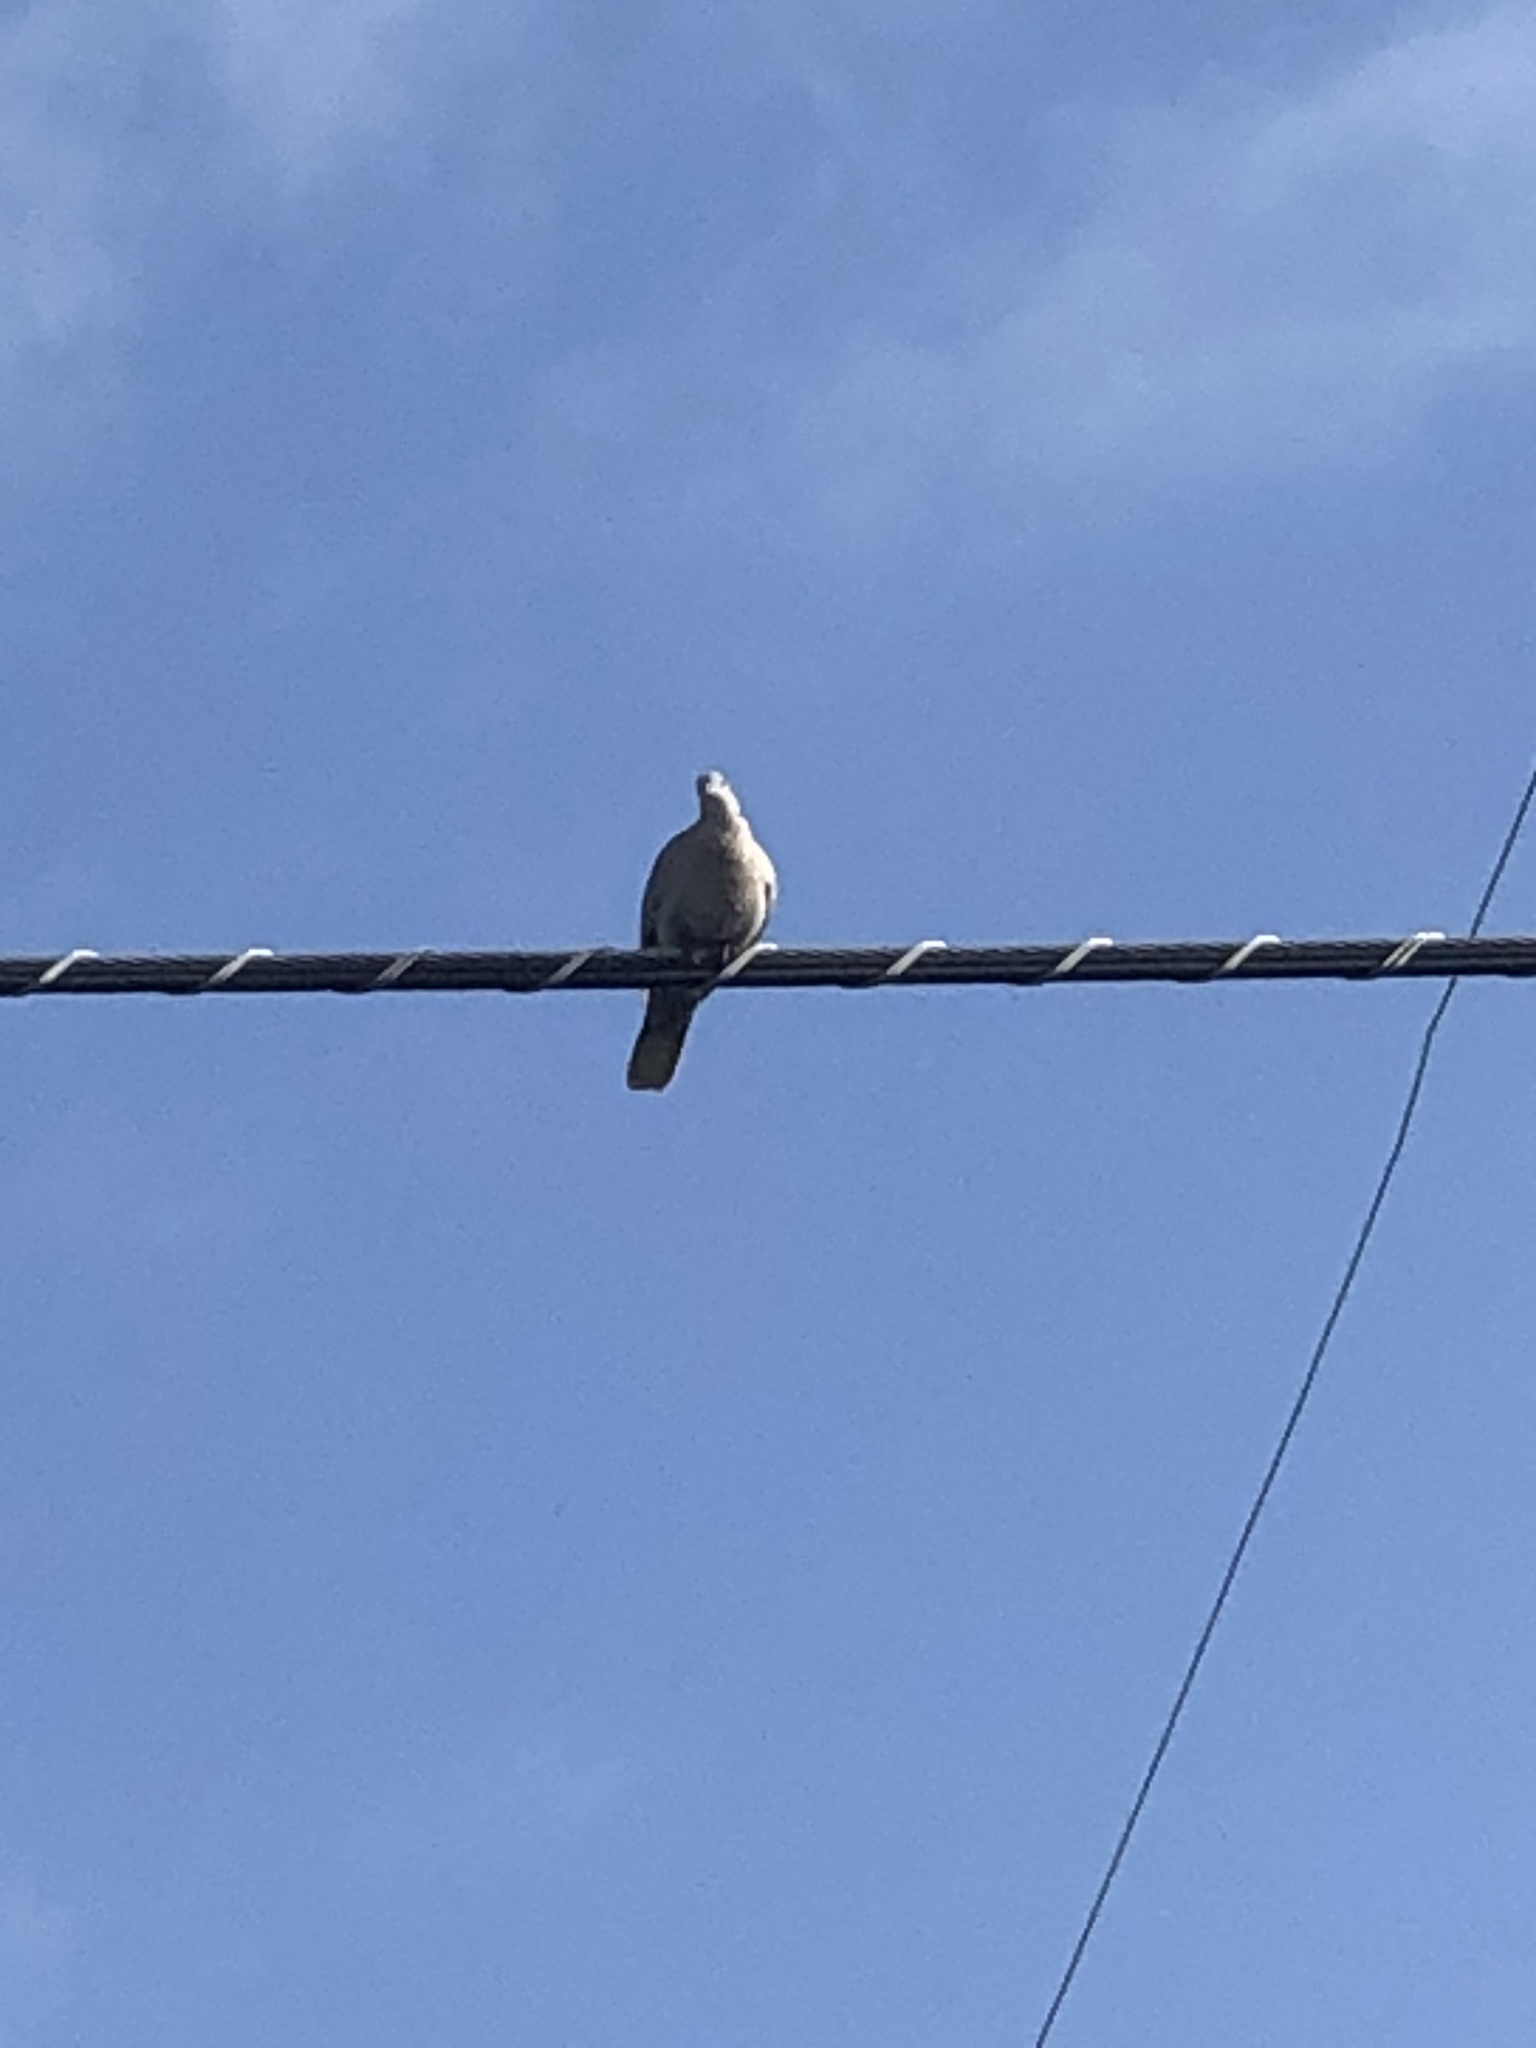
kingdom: Animalia
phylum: Chordata
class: Aves
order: Columbiformes
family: Columbidae
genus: Streptopelia
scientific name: Streptopelia decaocto
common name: Eurasian collared dove
